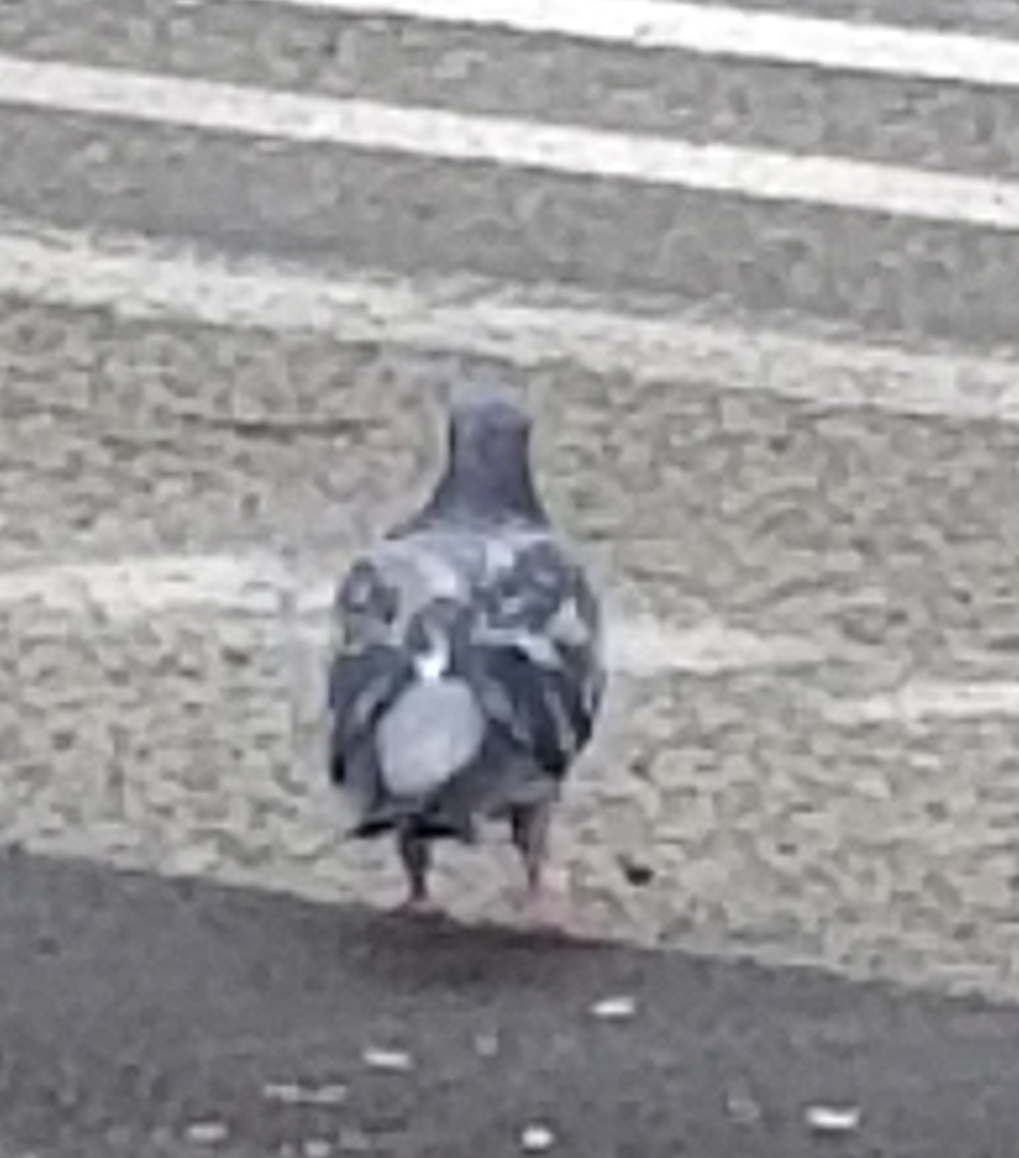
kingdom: Animalia
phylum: Chordata
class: Aves
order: Columbiformes
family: Columbidae
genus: Columba
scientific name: Columba livia
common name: Rock pigeon
